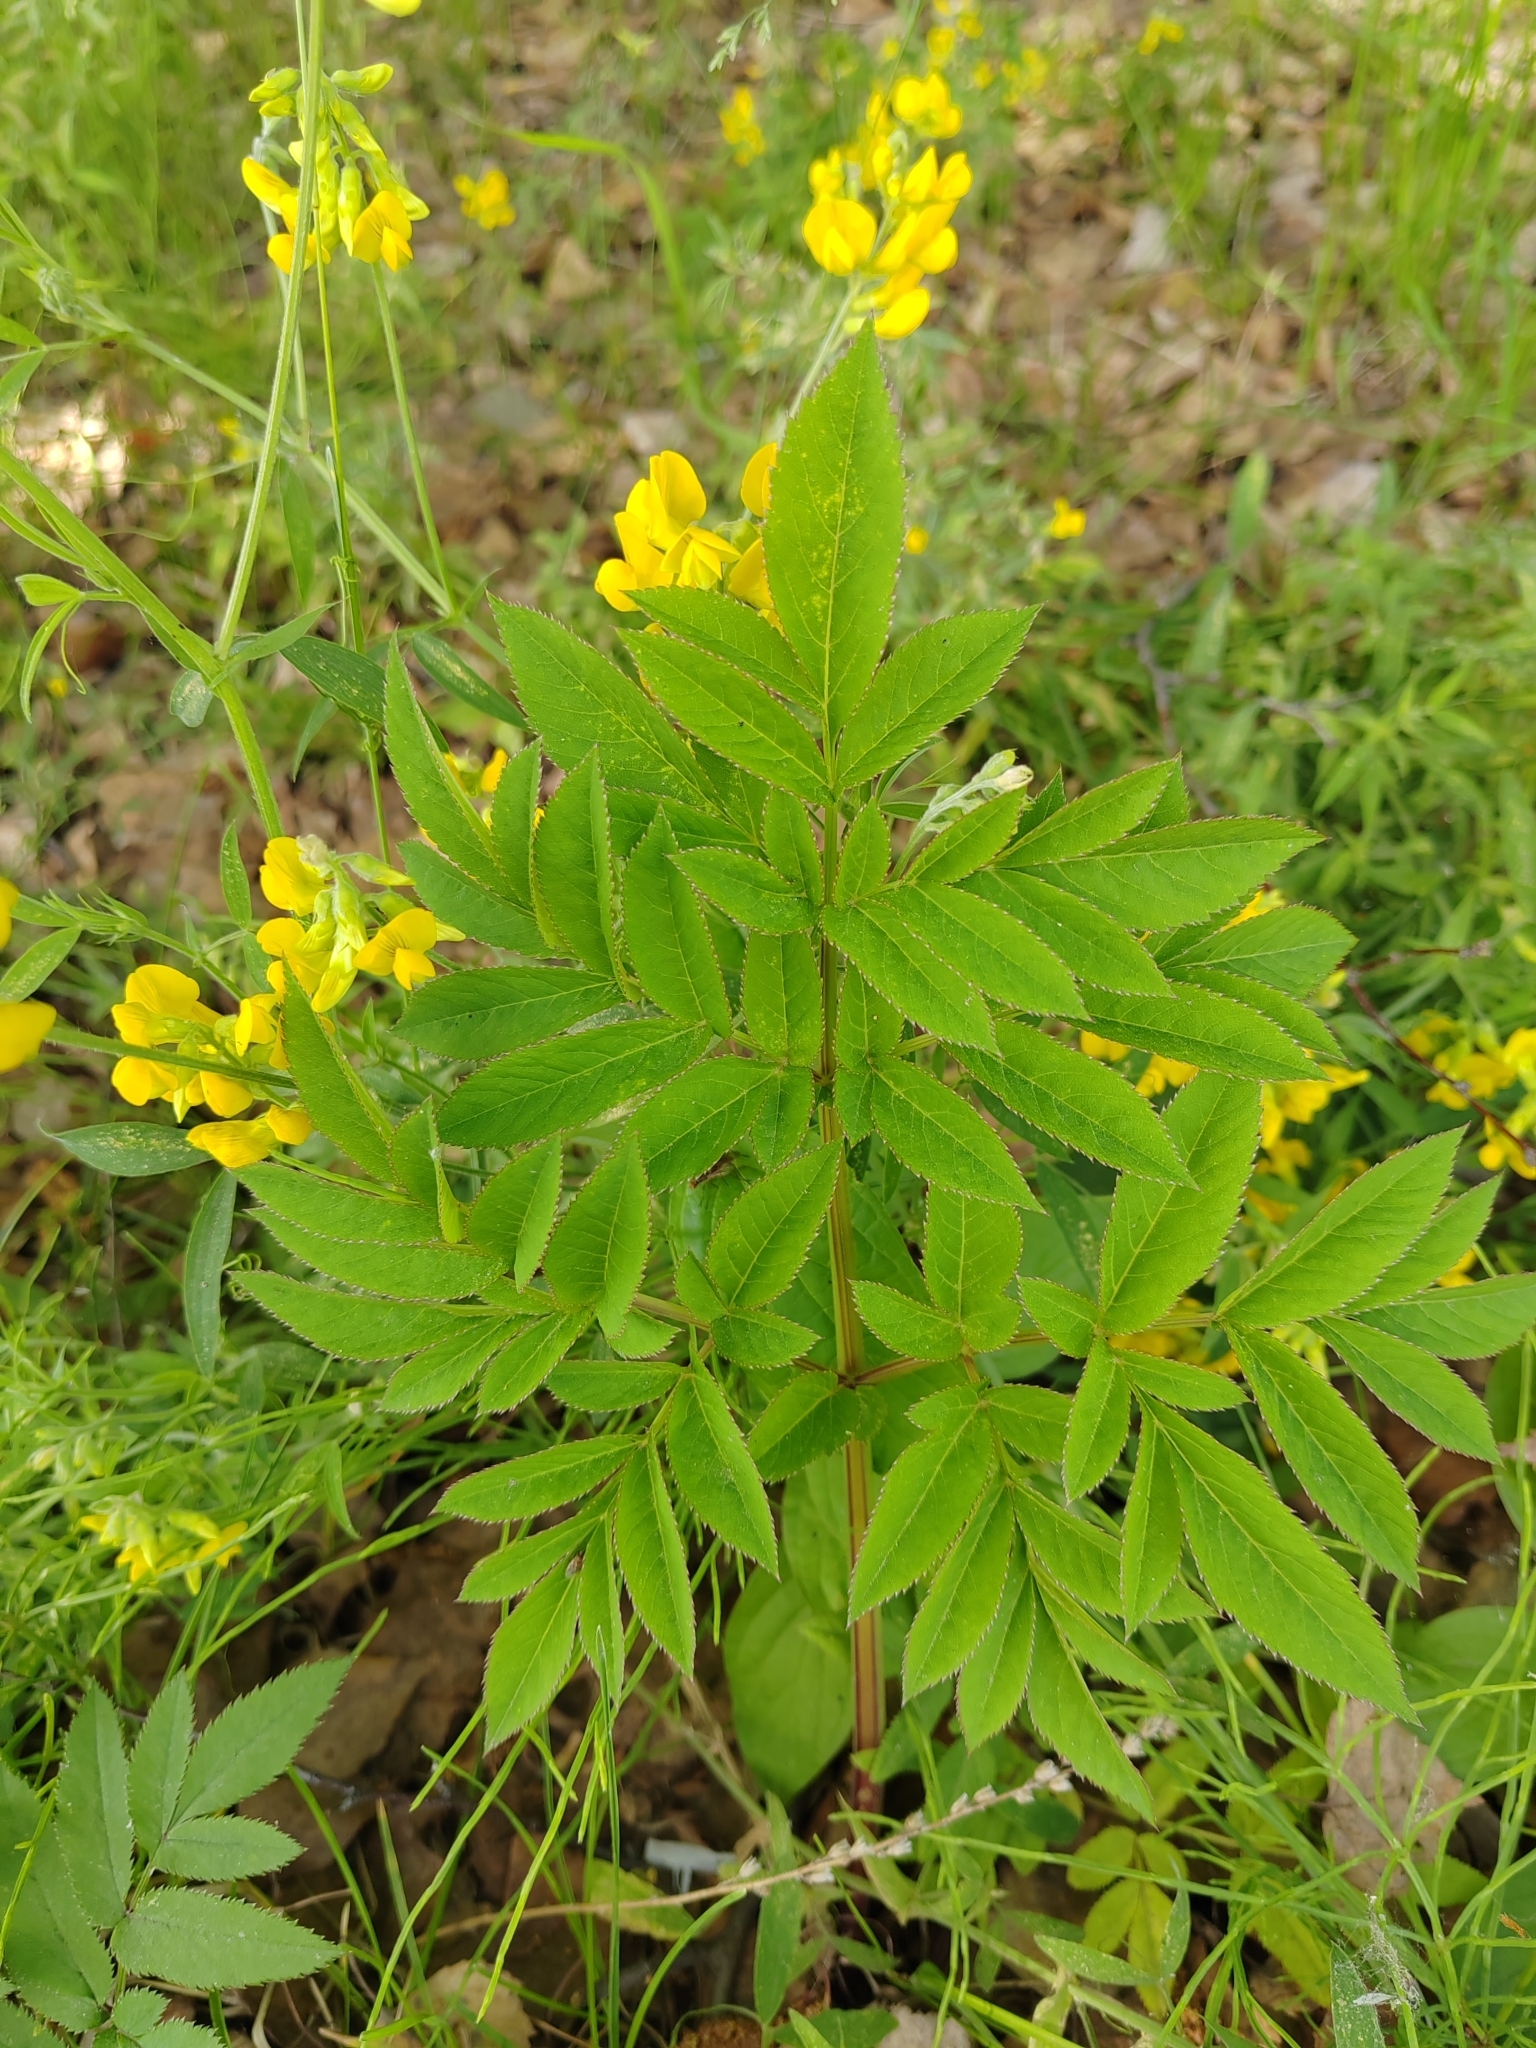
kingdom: Plantae
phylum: Tracheophyta
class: Magnoliopsida
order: Apiales
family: Apiaceae
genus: Angelica
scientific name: Angelica sylvestris
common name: Wild angelica
